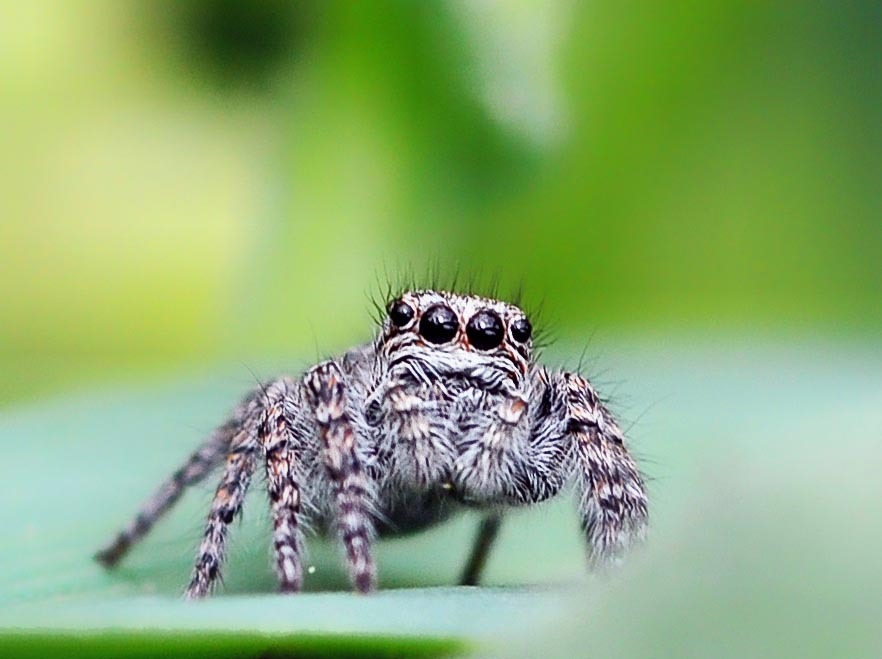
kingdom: Animalia
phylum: Arthropoda
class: Arachnida
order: Araneae
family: Salticidae
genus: Philaeus
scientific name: Philaeus chrysops
